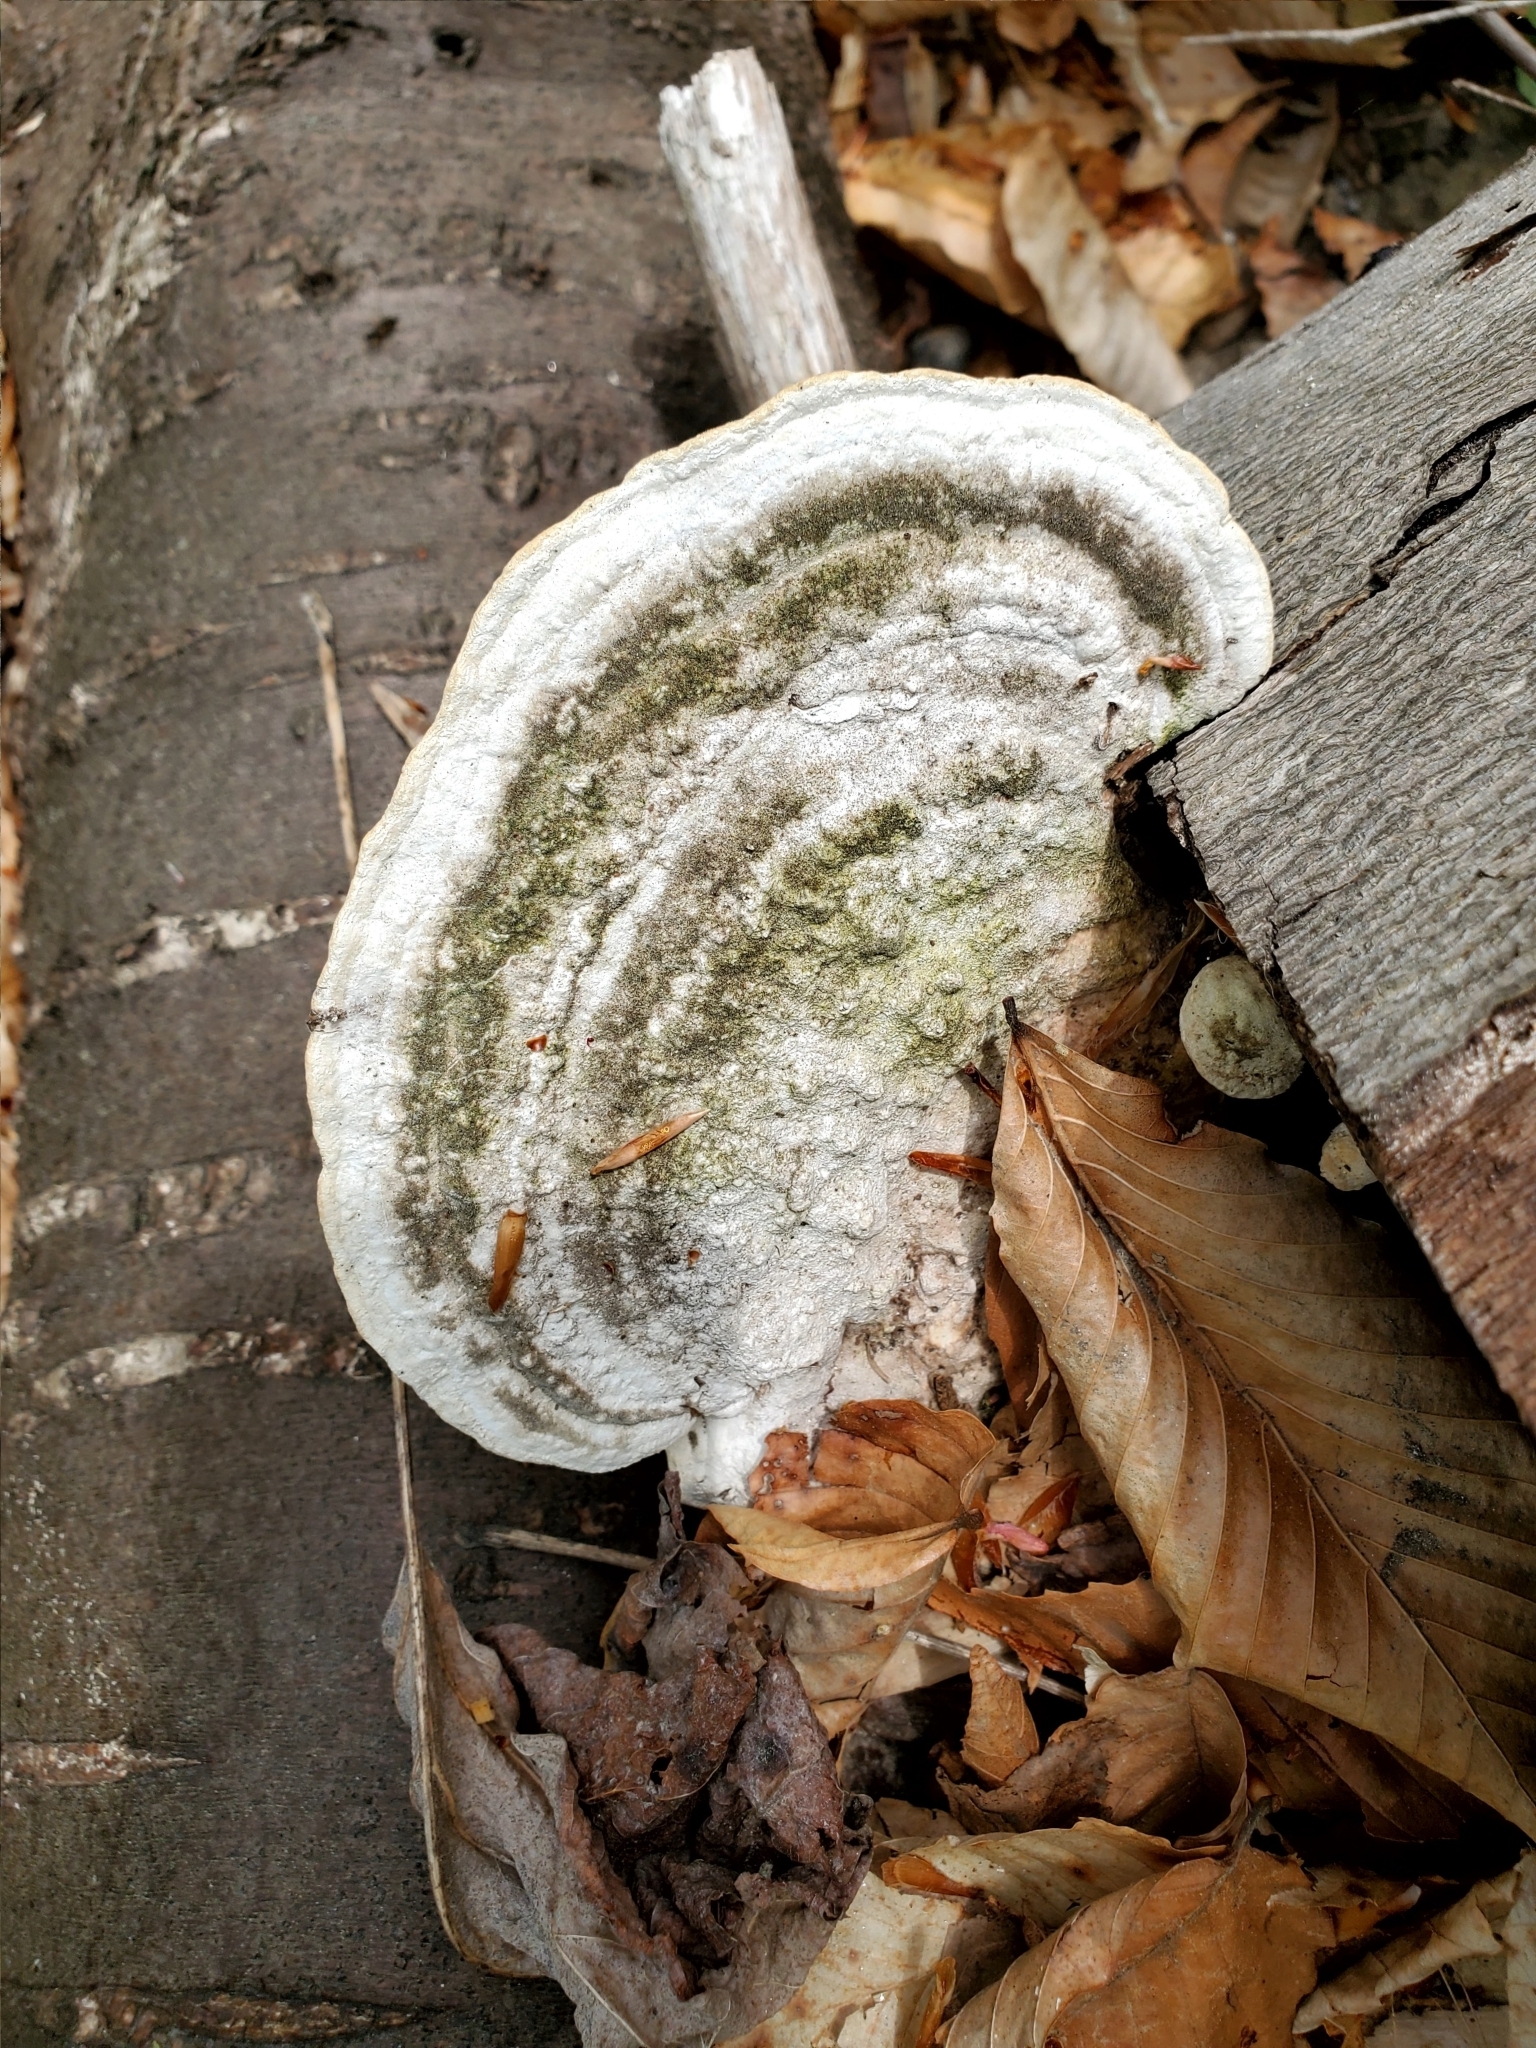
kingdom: Fungi
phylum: Basidiomycota
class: Agaricomycetes
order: Polyporales
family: Polyporaceae
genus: Trametes
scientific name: Trametes gibbosa
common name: Lumpy bracket
